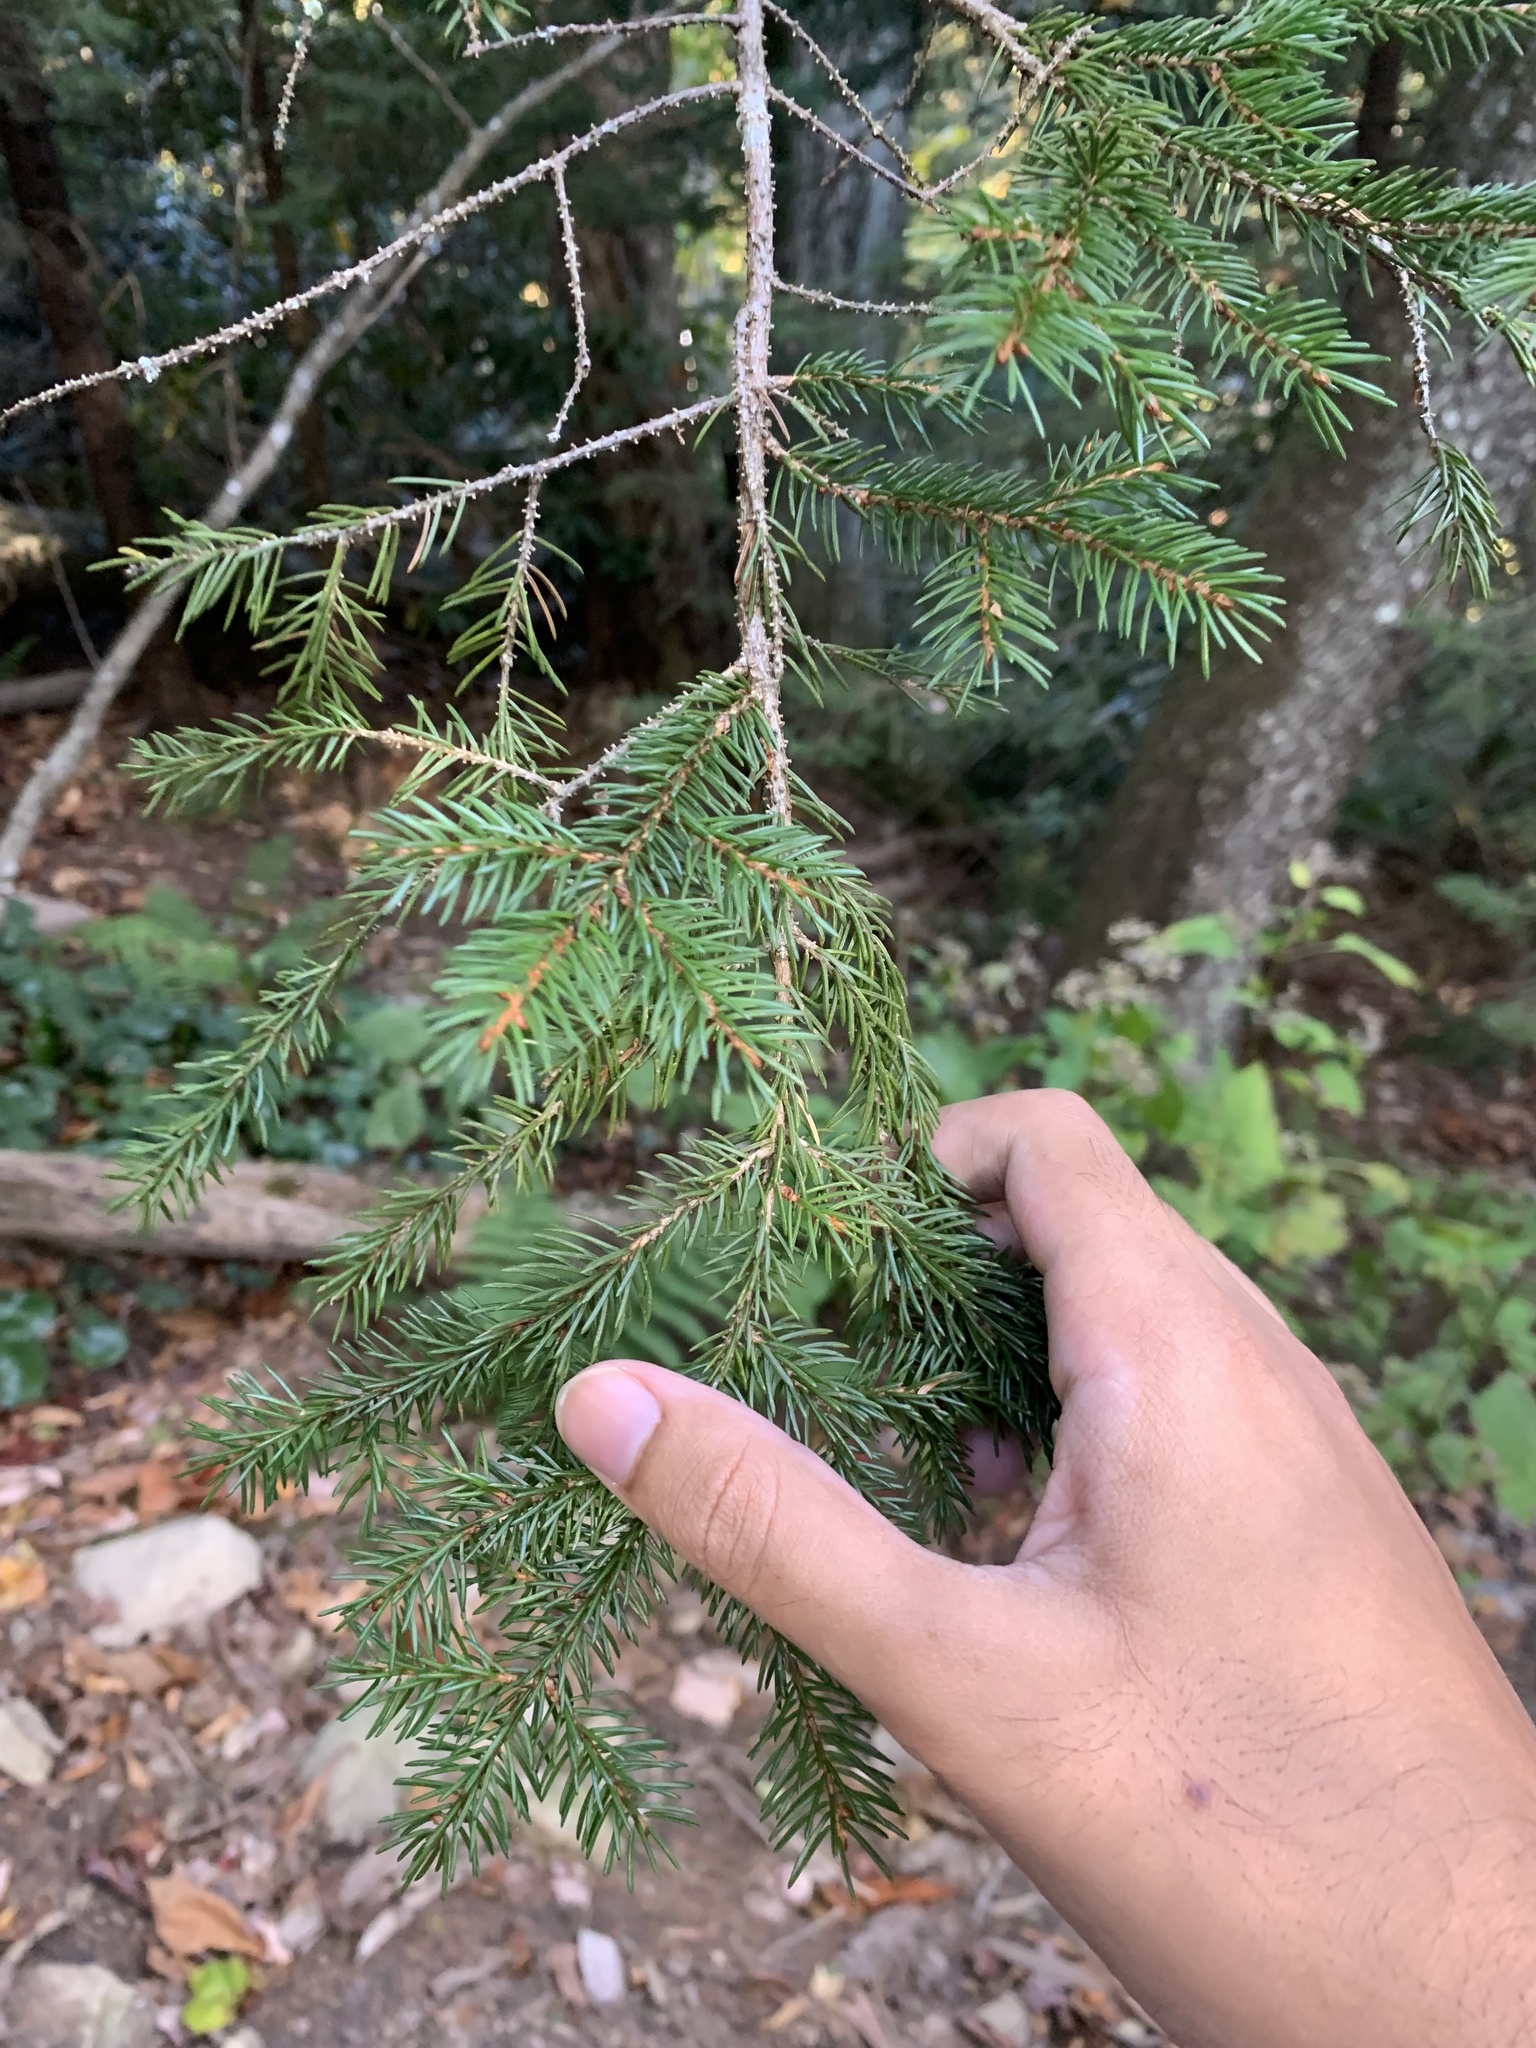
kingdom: Plantae
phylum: Tracheophyta
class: Pinopsida
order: Pinales
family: Pinaceae
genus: Picea
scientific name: Picea rubens
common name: Red spruce
